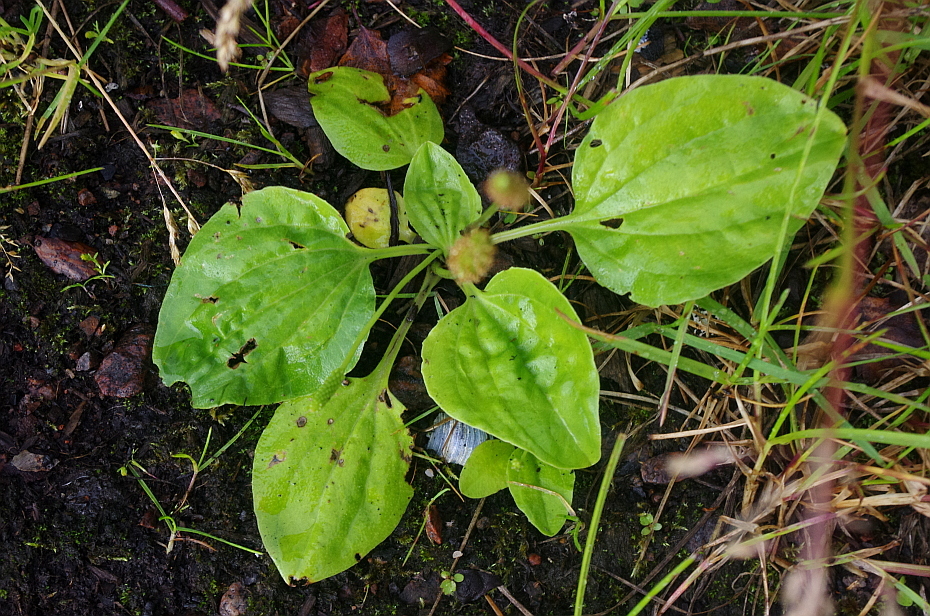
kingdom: Plantae
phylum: Tracheophyta
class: Magnoliopsida
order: Lamiales
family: Plantaginaceae
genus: Plantago
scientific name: Plantago major
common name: Common plantain
